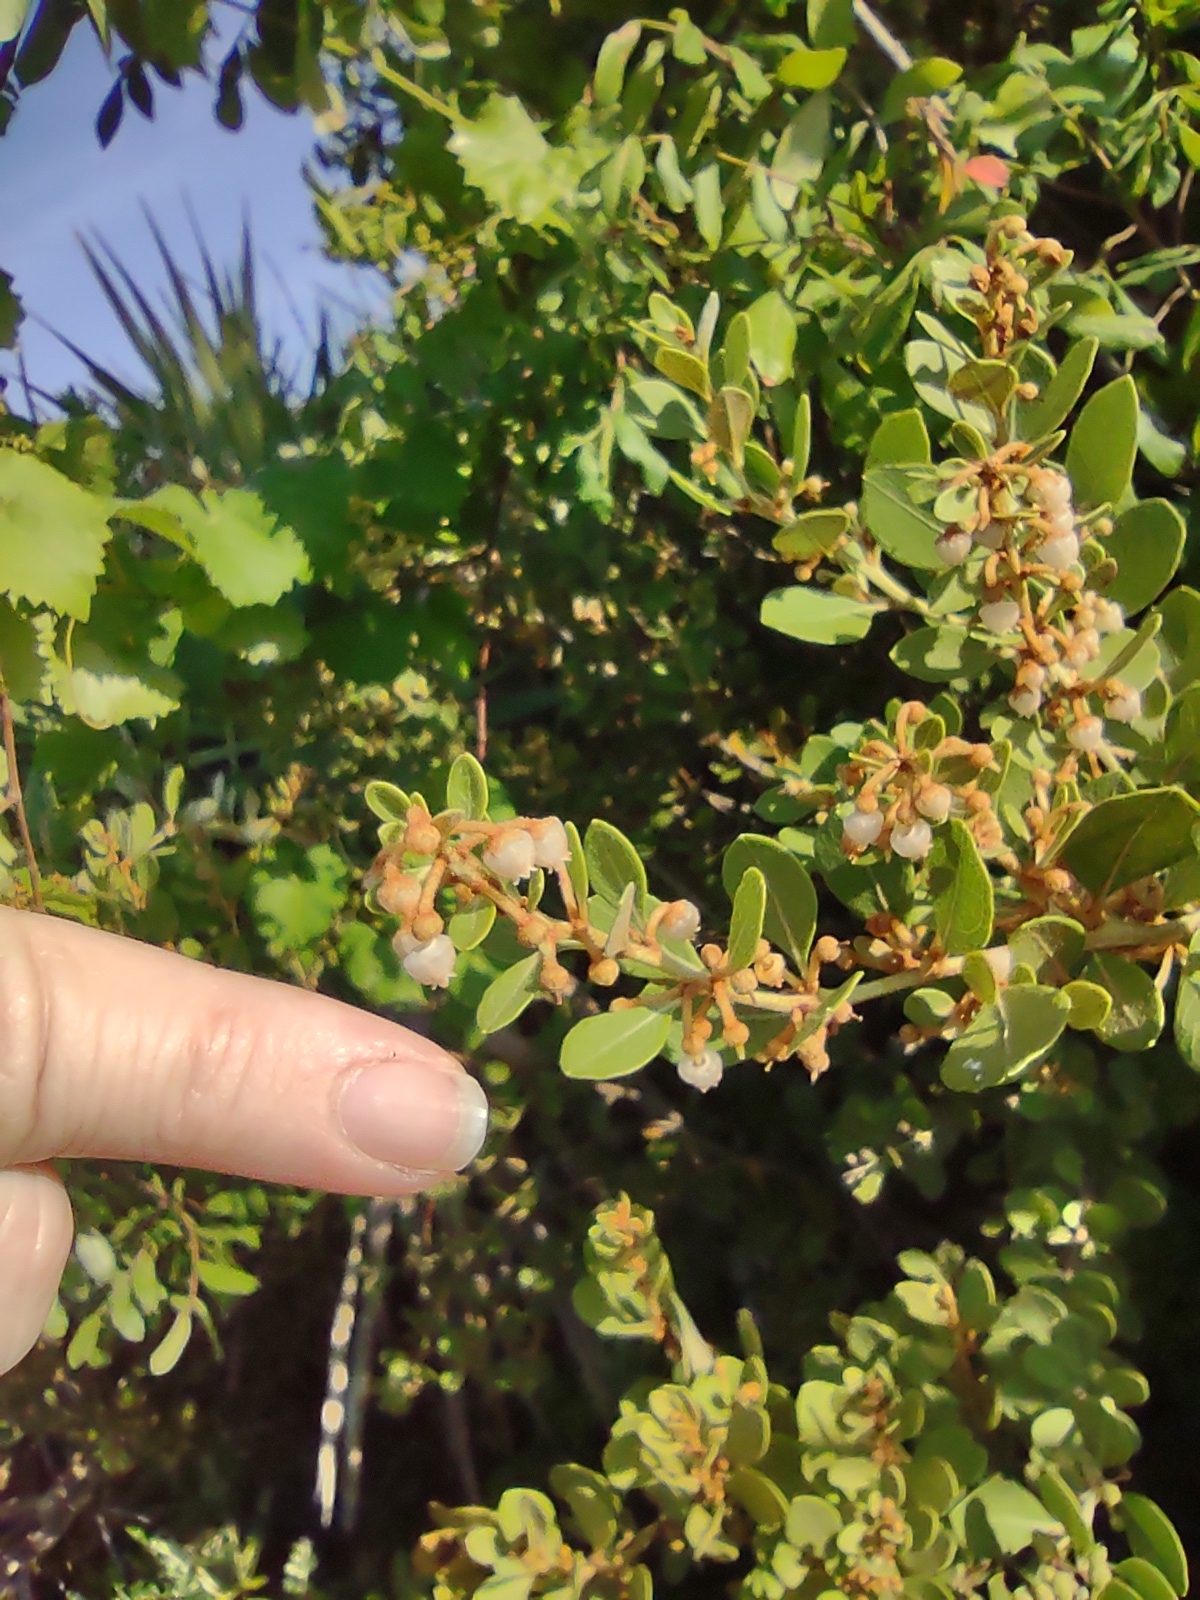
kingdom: Plantae
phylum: Tracheophyta
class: Magnoliopsida
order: Ericales
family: Ericaceae
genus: Lyonia
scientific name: Lyonia fruticosa
